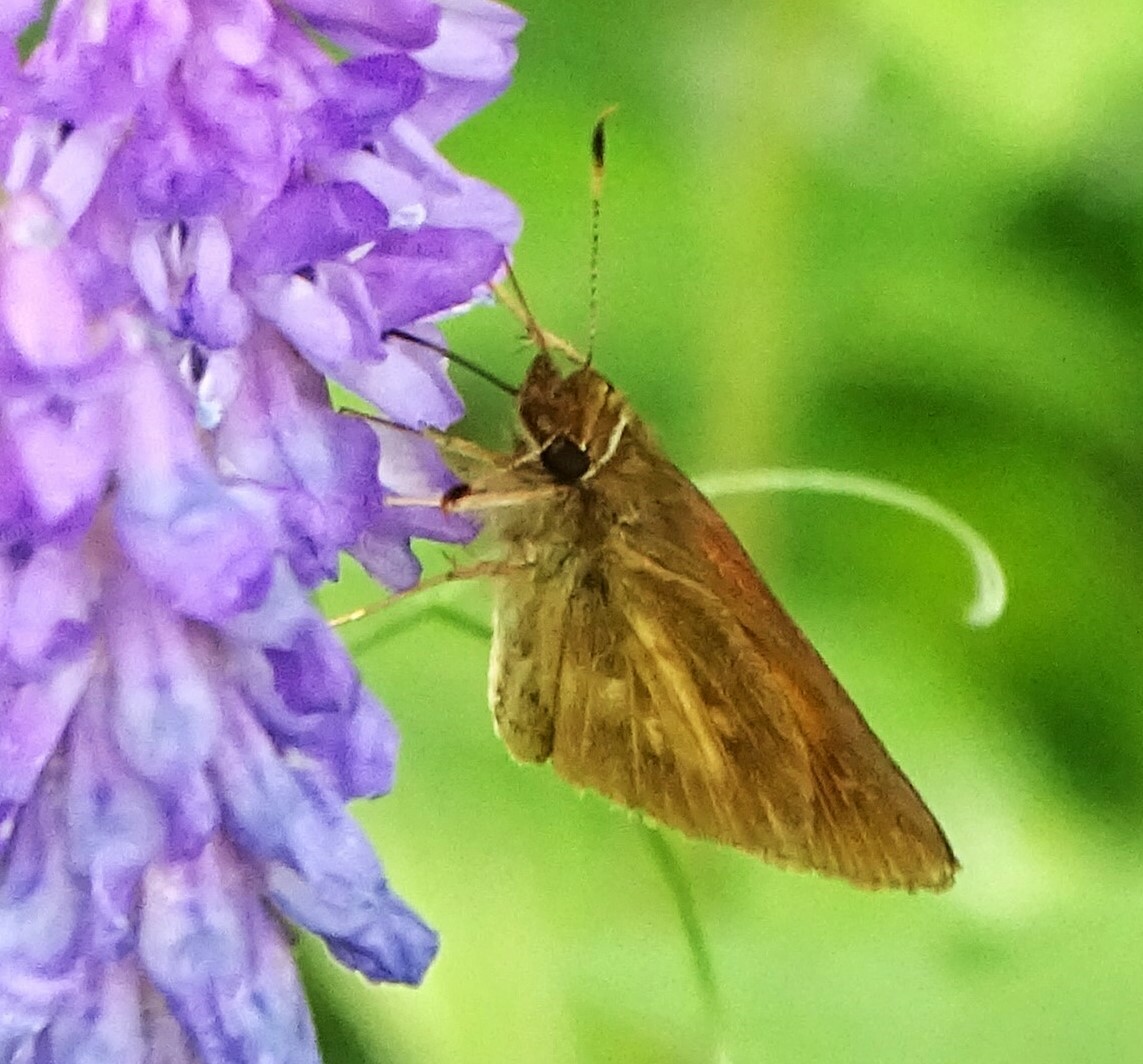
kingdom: Animalia
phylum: Arthropoda
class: Insecta
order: Lepidoptera
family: Hesperiidae
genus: Poanes
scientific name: Poanes viator
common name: Broad-winged skipper
